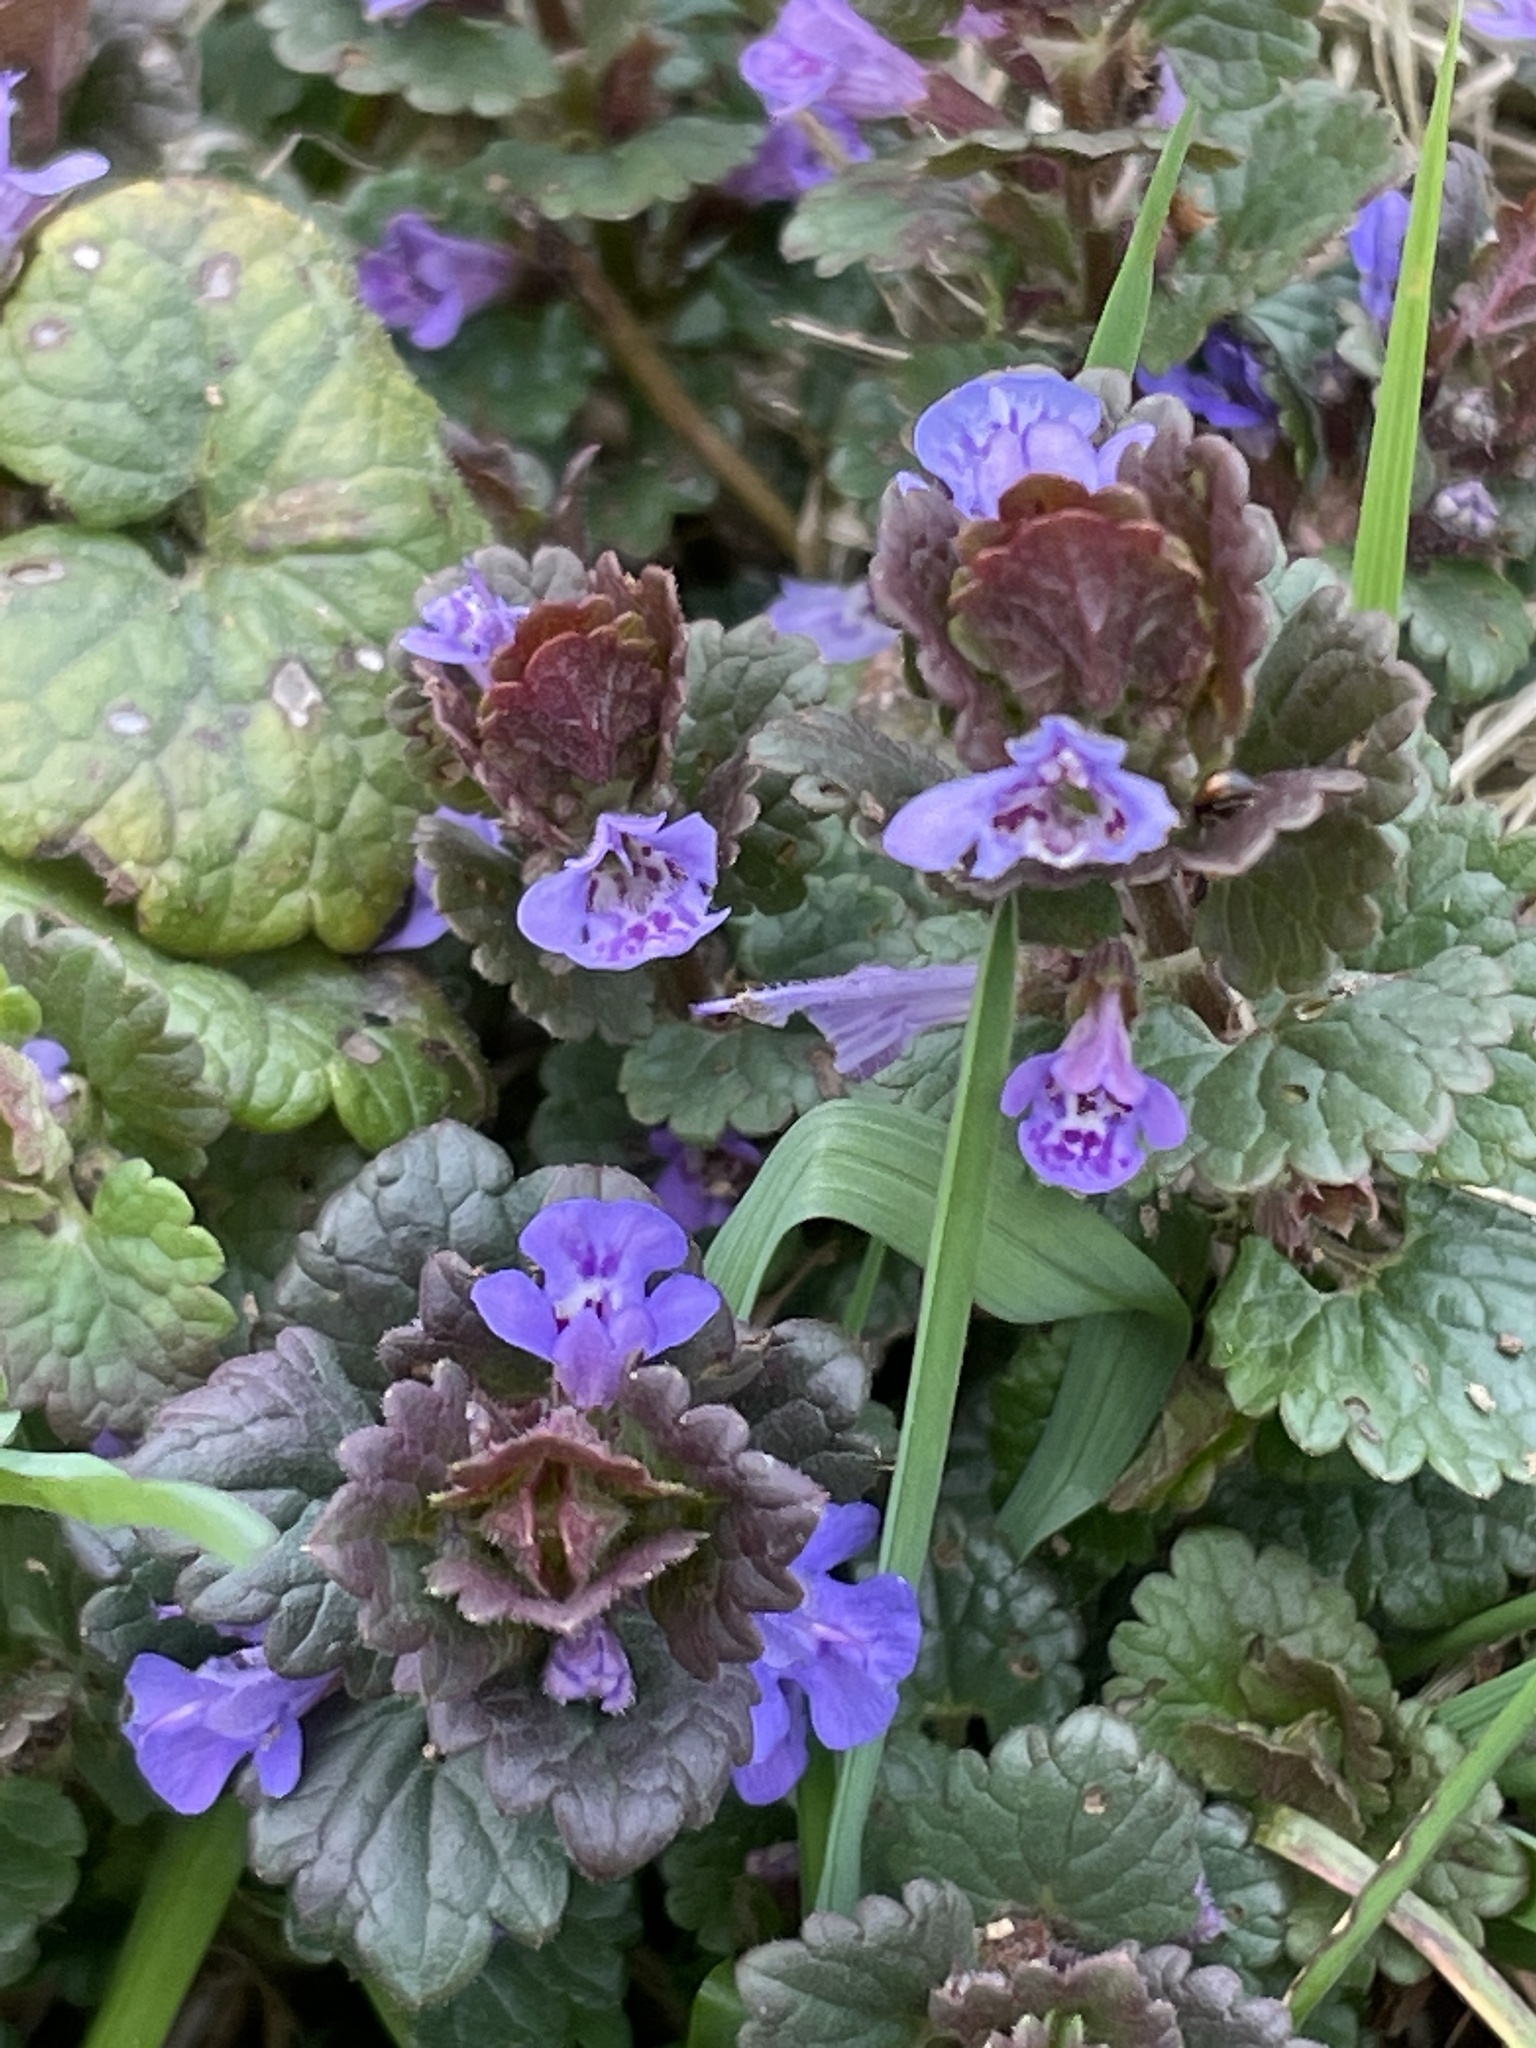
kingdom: Plantae
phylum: Tracheophyta
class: Magnoliopsida
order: Lamiales
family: Lamiaceae
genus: Glechoma
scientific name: Glechoma hederacea
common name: Ground ivy
